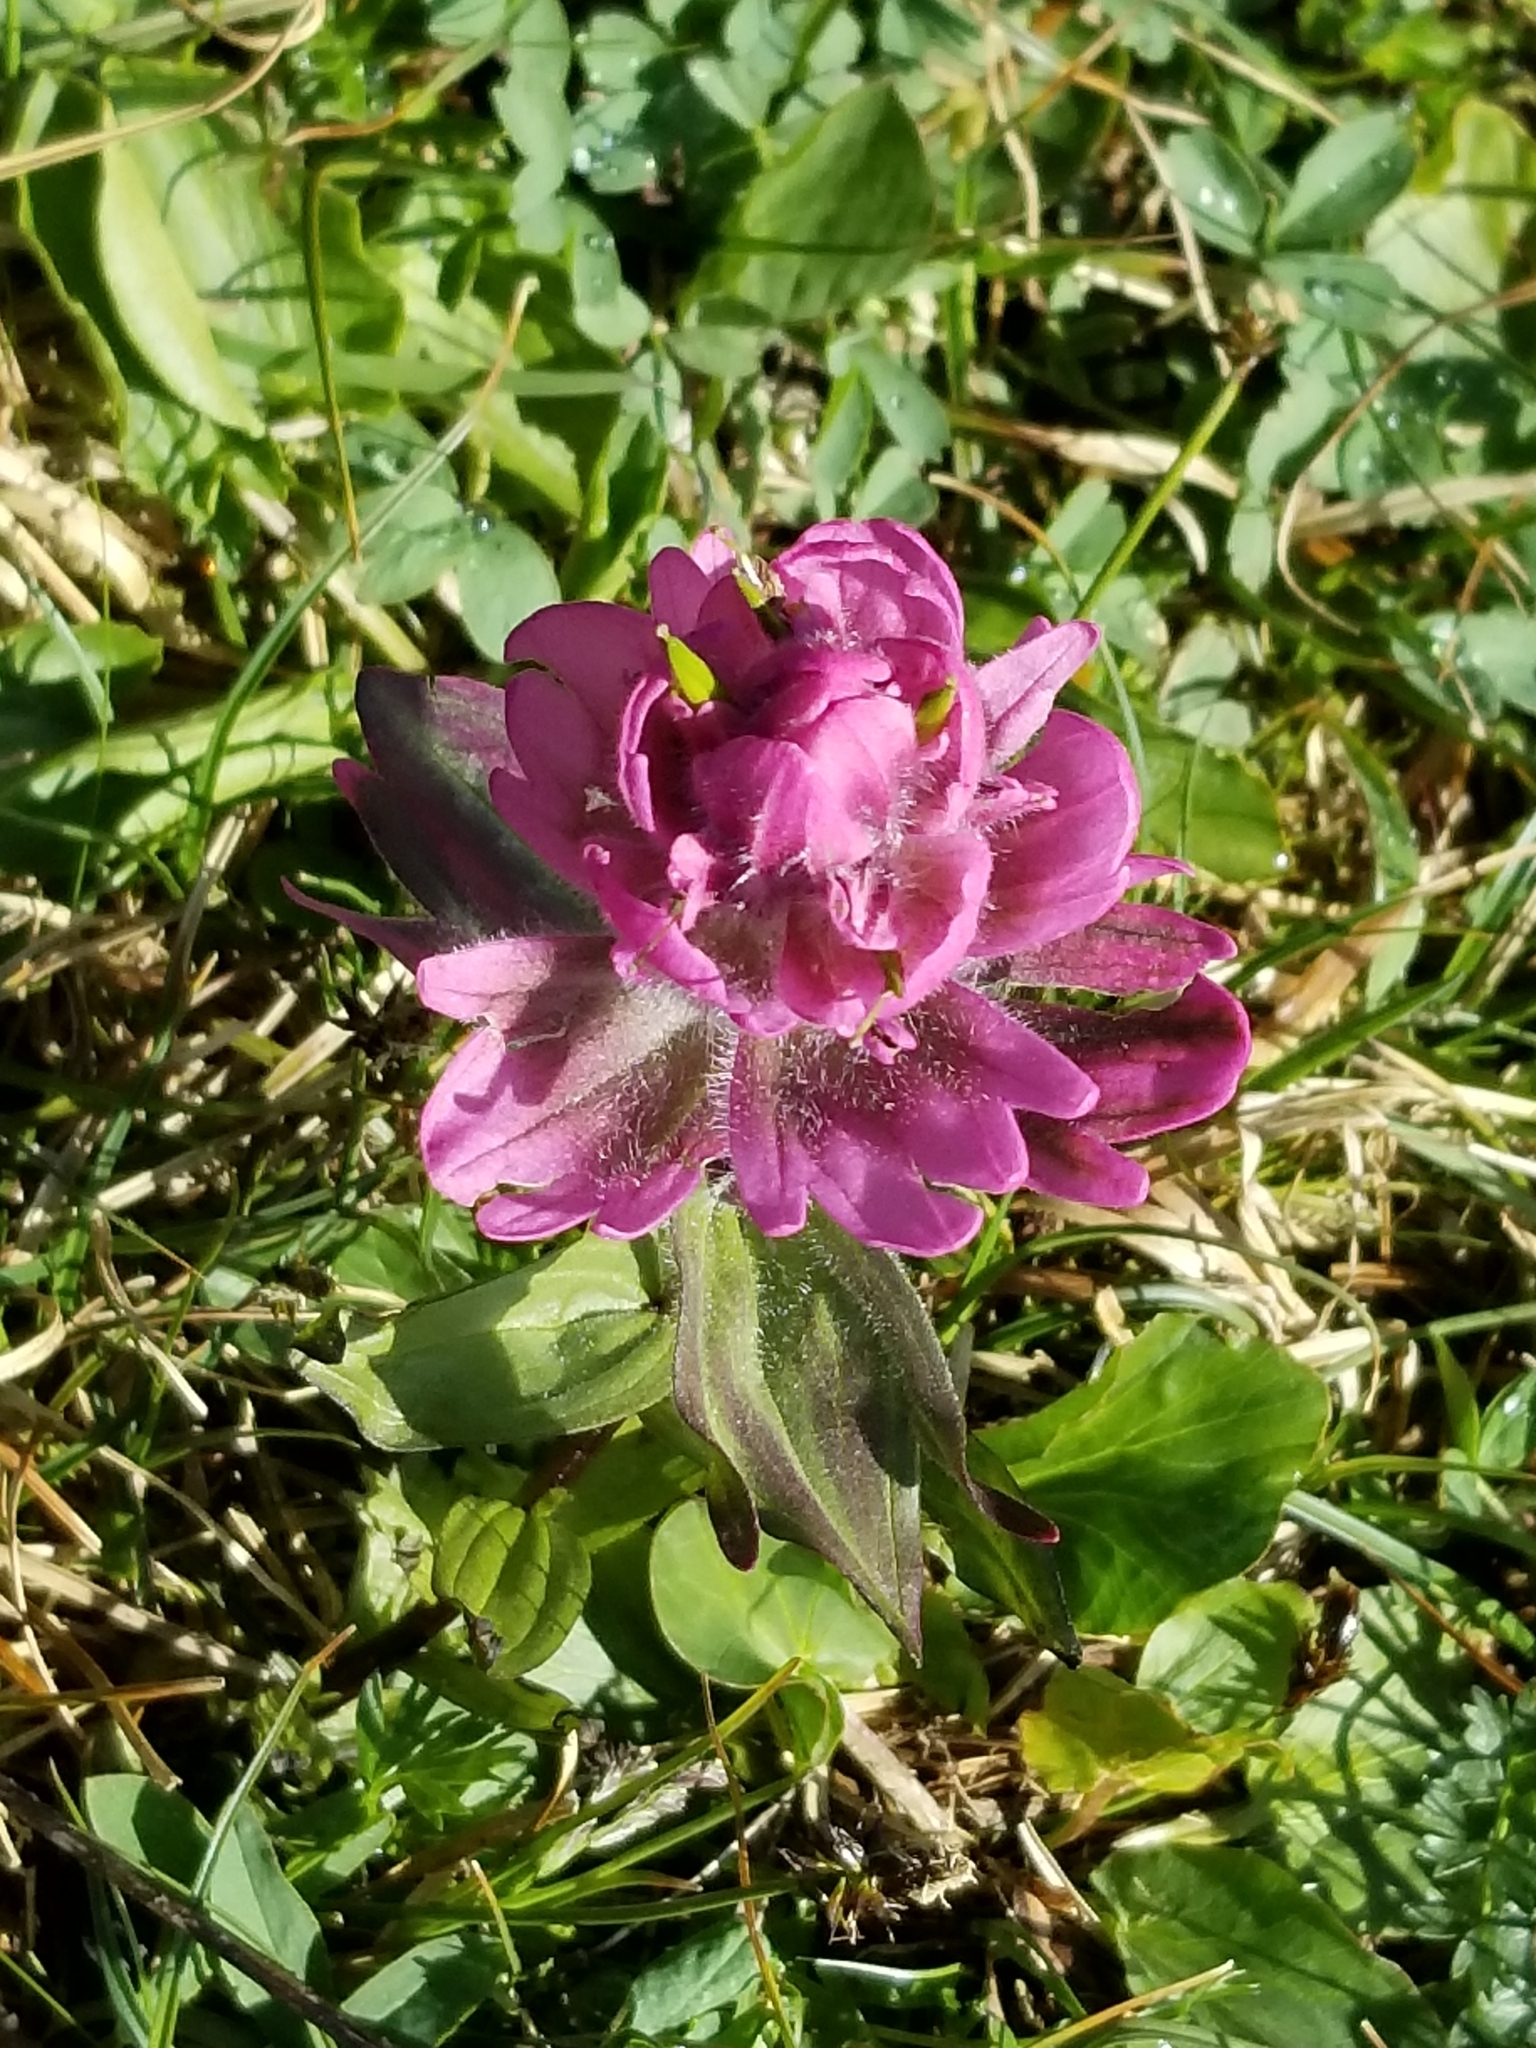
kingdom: Plantae
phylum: Tracheophyta
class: Magnoliopsida
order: Lamiales
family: Orobanchaceae
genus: Castilleja
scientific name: Castilleja rhexifolia
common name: Rocky mountain paintbrush
